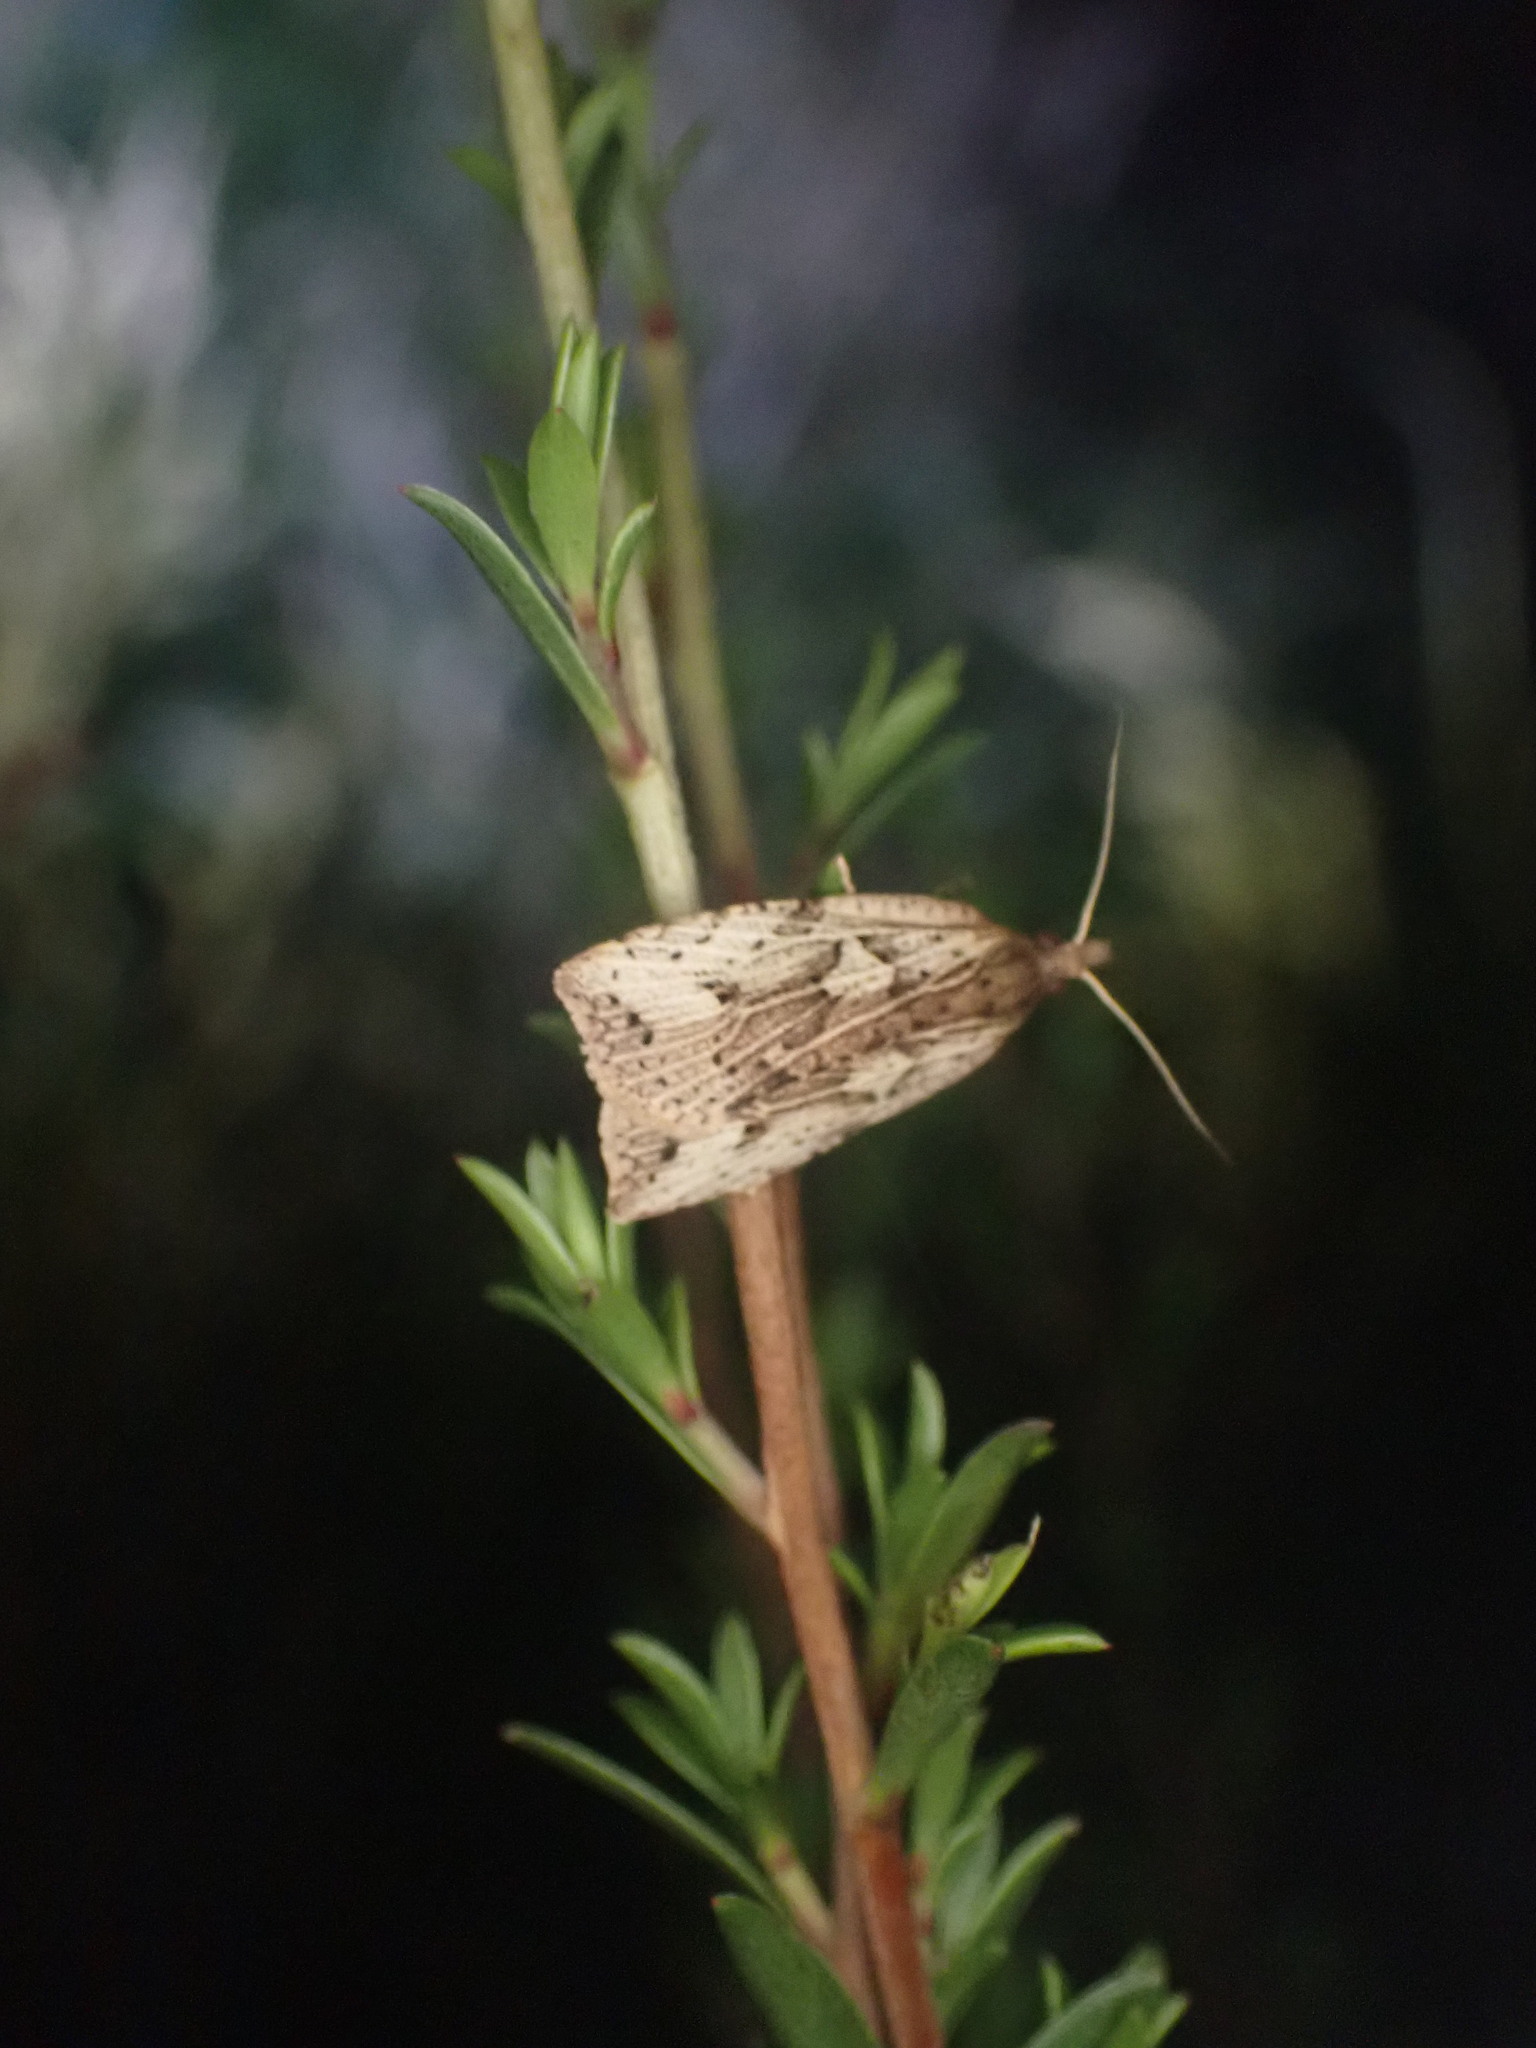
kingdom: Animalia
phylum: Arthropoda
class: Insecta
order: Lepidoptera
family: Tortricidae
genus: Planotortrix
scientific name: Planotortrix notophaea
